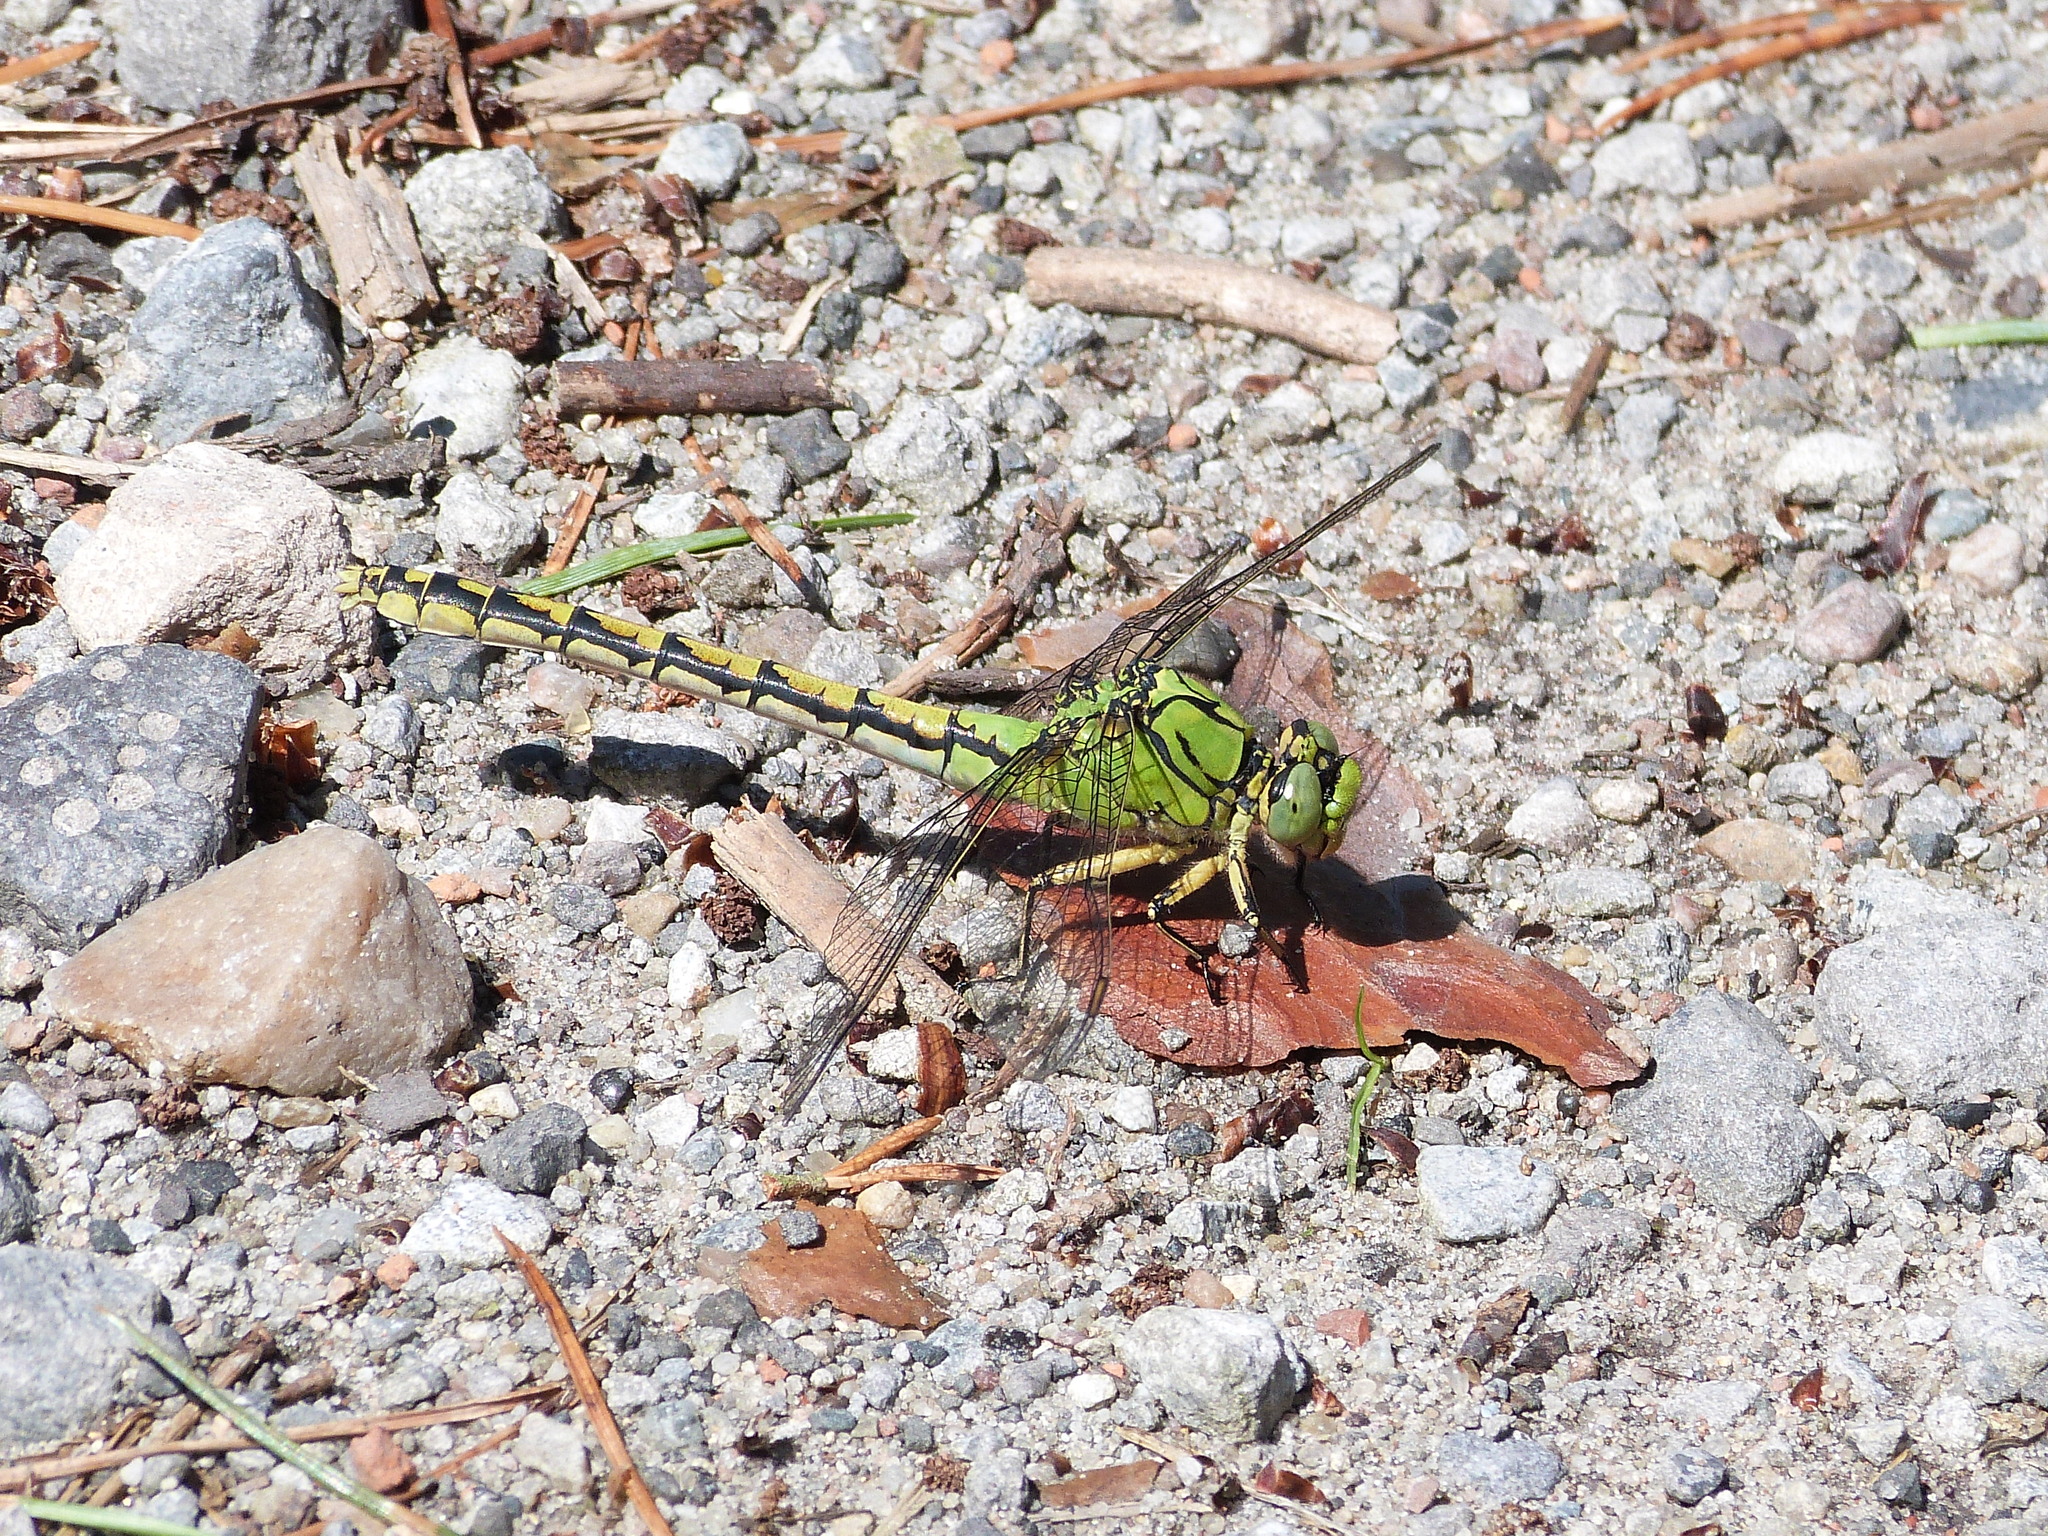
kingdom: Animalia
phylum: Arthropoda
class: Insecta
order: Odonata
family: Gomphidae
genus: Ophiogomphus
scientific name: Ophiogomphus cecilia
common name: Green snaketail
